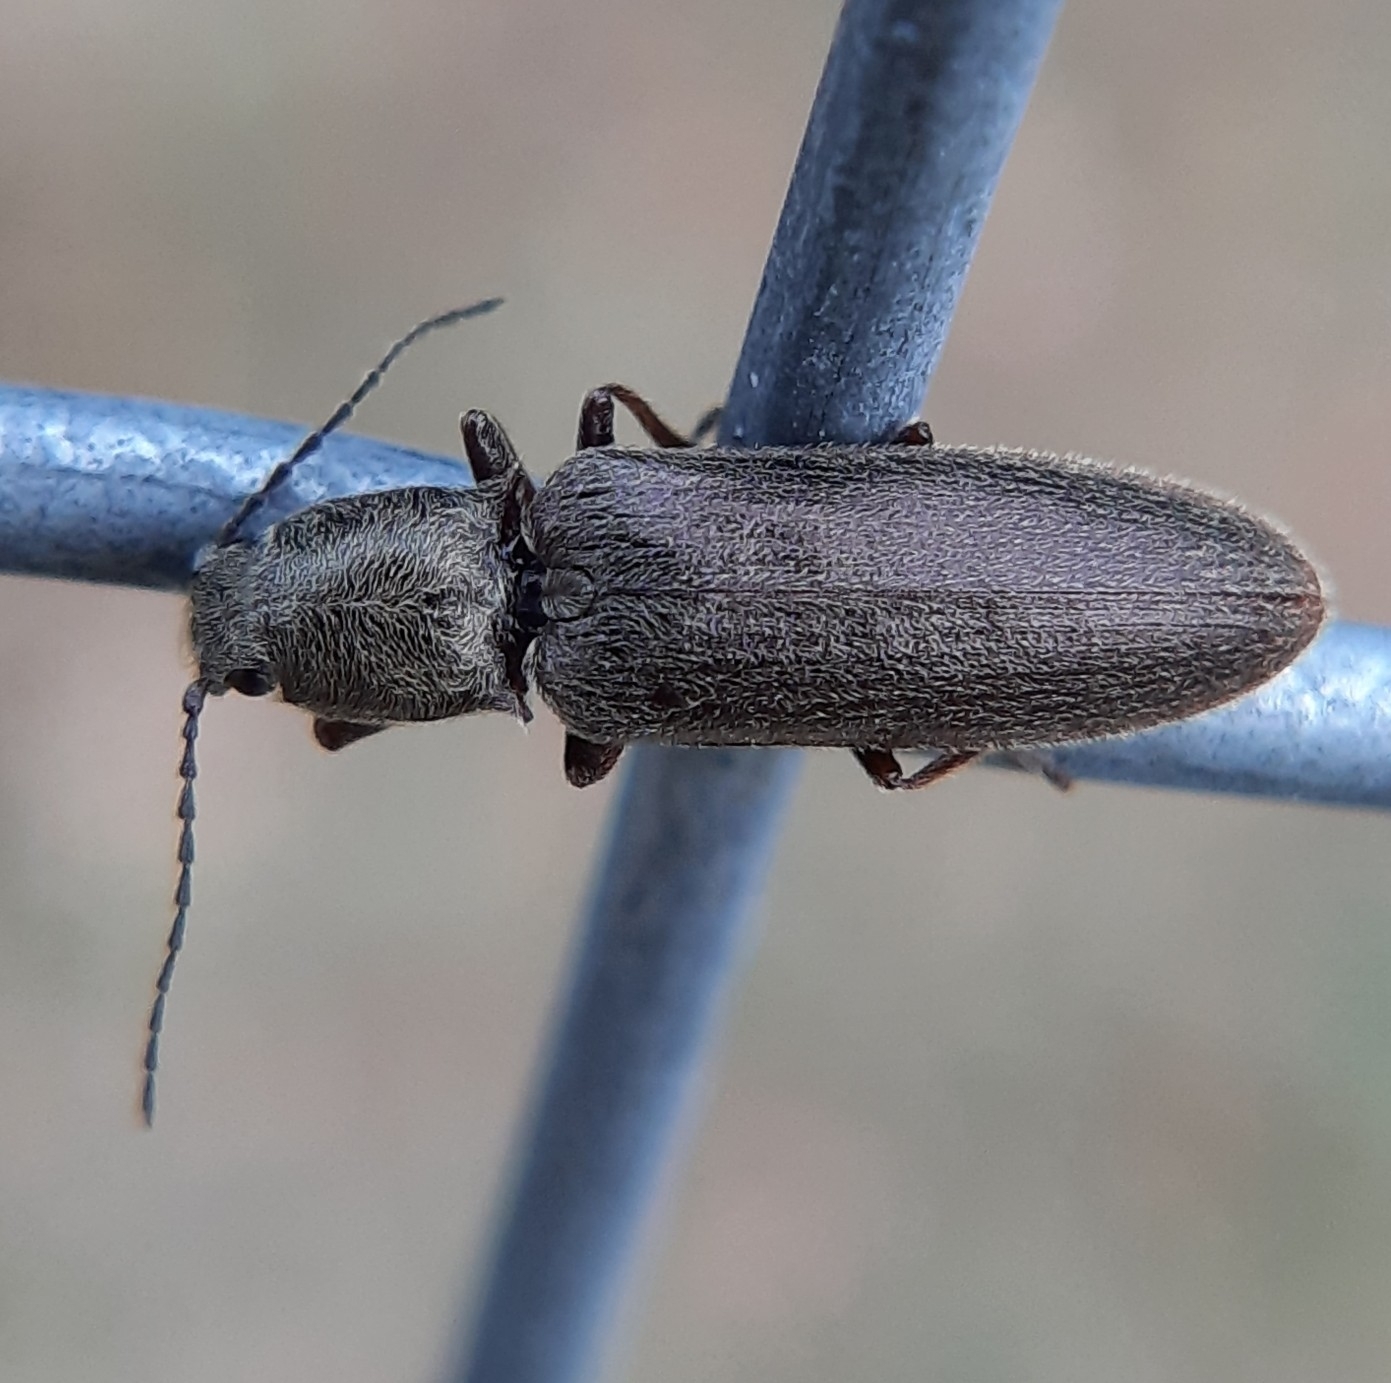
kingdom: Animalia
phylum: Arthropoda
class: Insecta
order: Coleoptera
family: Elateridae
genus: Sylvanelater
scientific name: Sylvanelater cylindriformis
